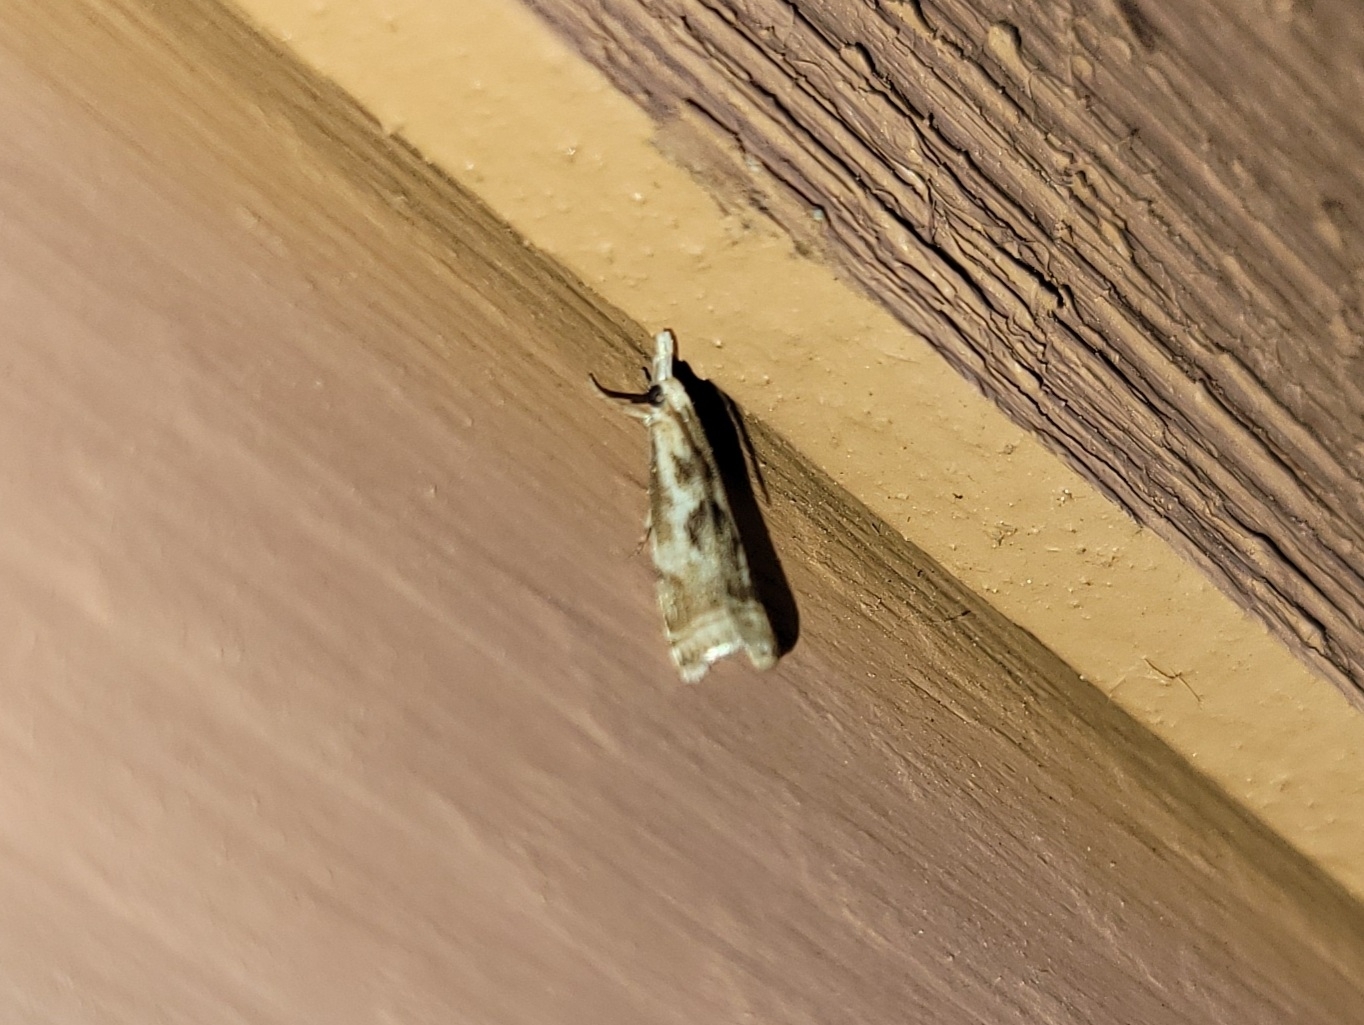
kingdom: Animalia
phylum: Arthropoda
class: Insecta
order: Lepidoptera
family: Crambidae
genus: Microcrambus
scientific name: Microcrambus elegans
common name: Elegant grass-veneer
